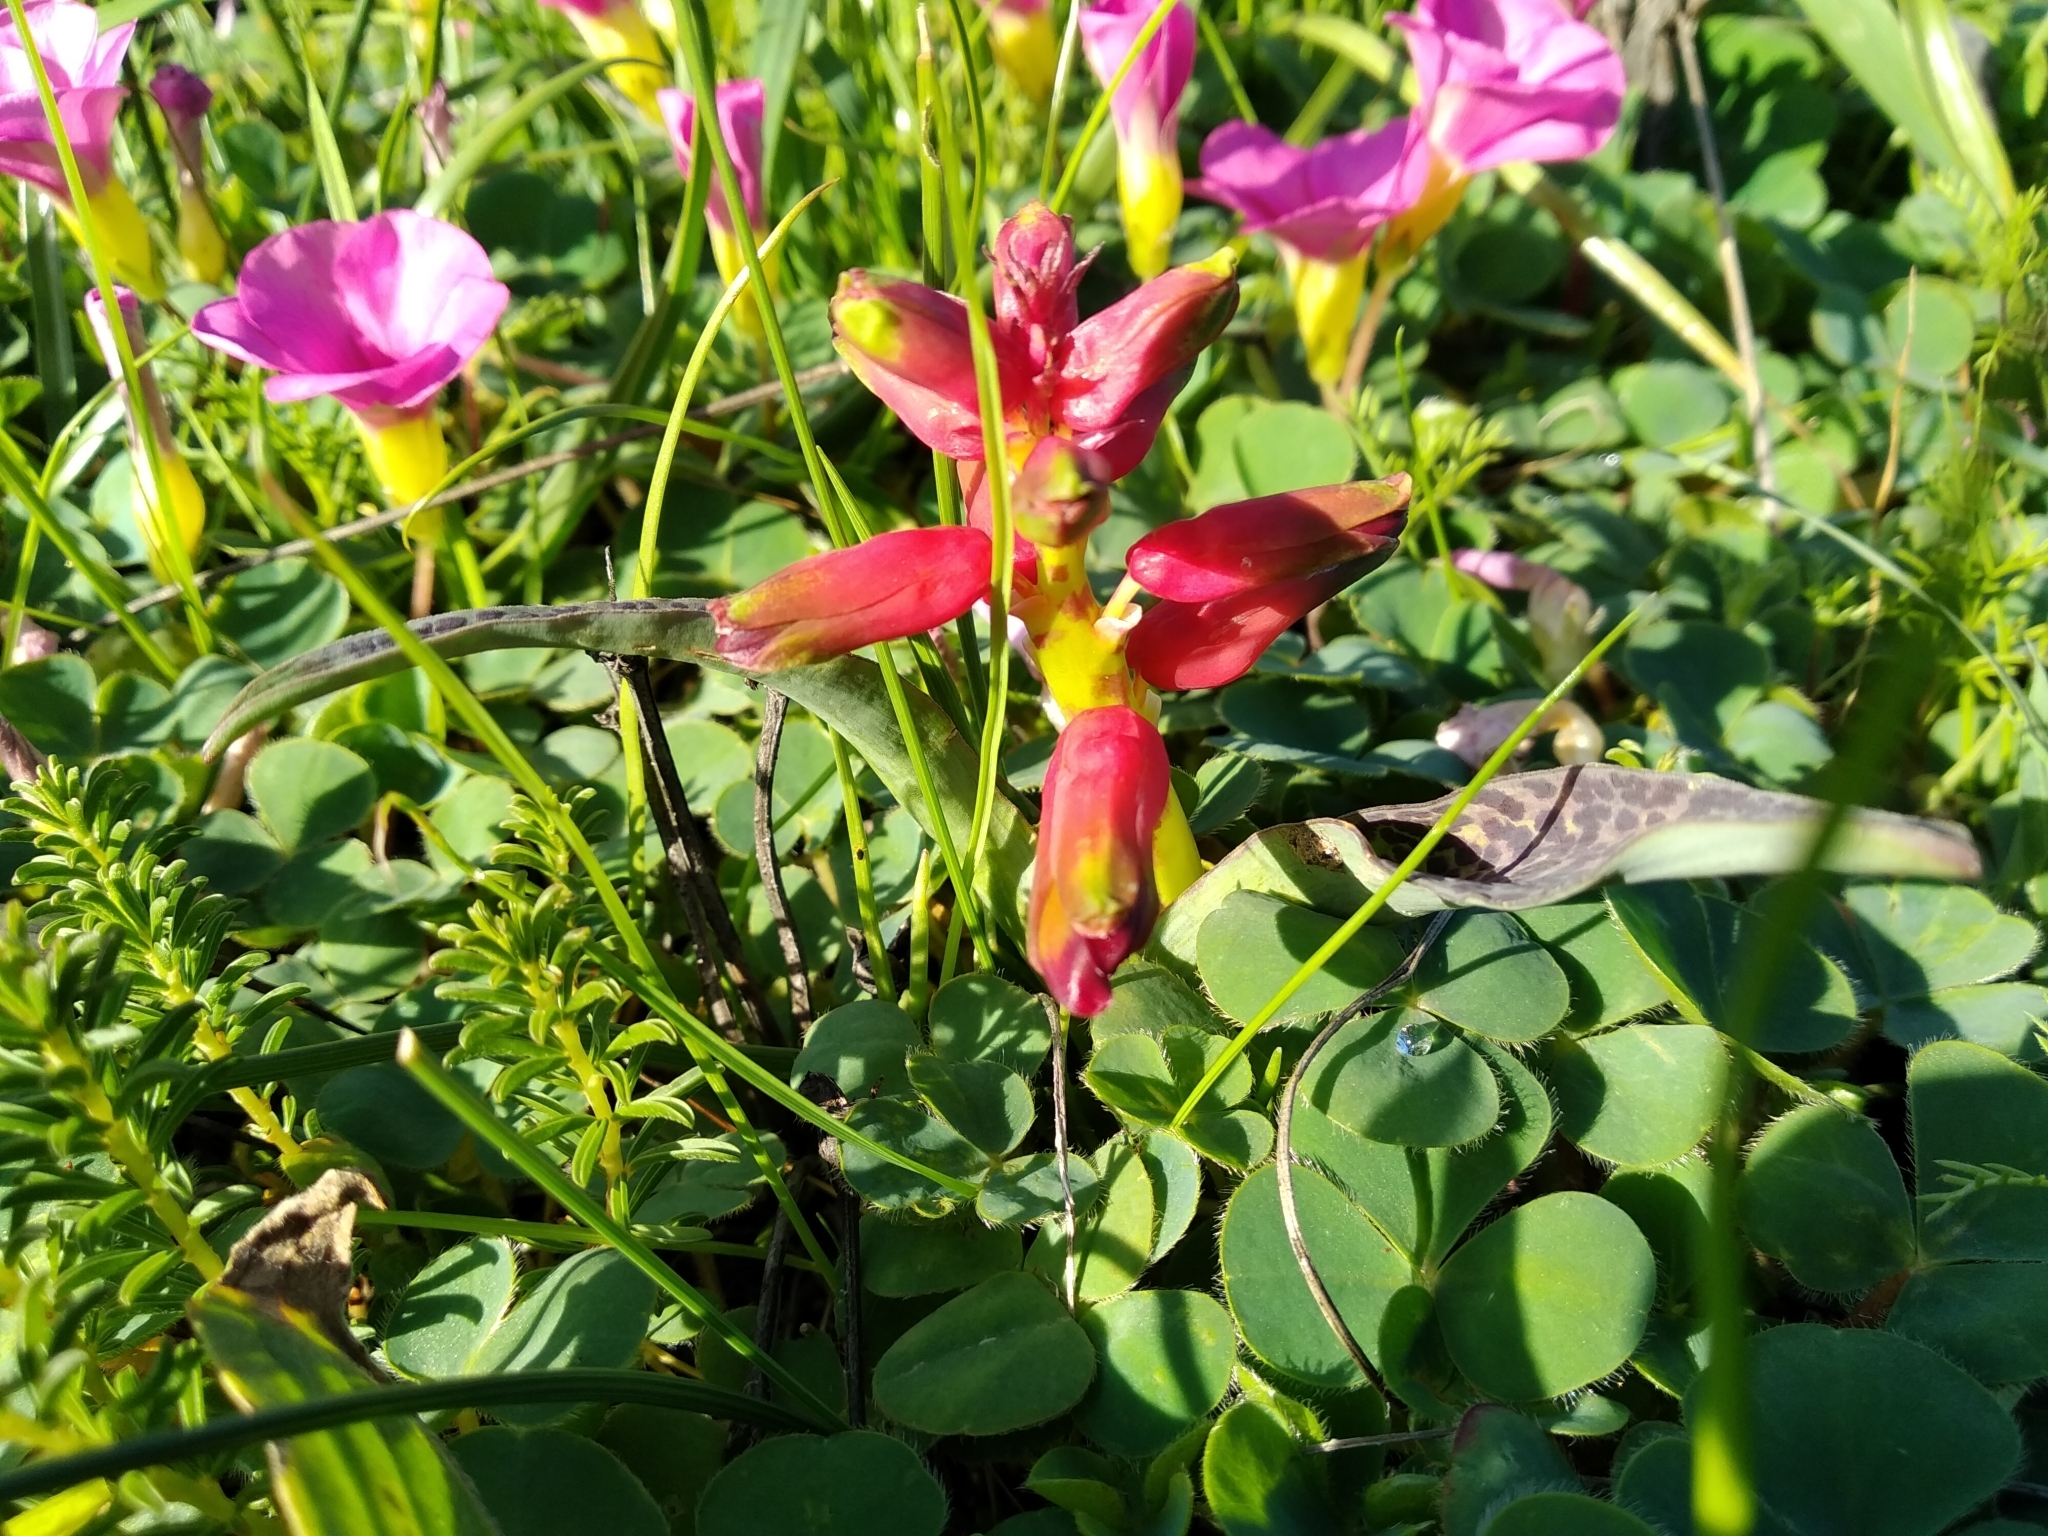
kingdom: Plantae
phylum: Tracheophyta
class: Liliopsida
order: Asparagales
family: Asparagaceae
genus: Lachenalia
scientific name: Lachenalia quadricolor
